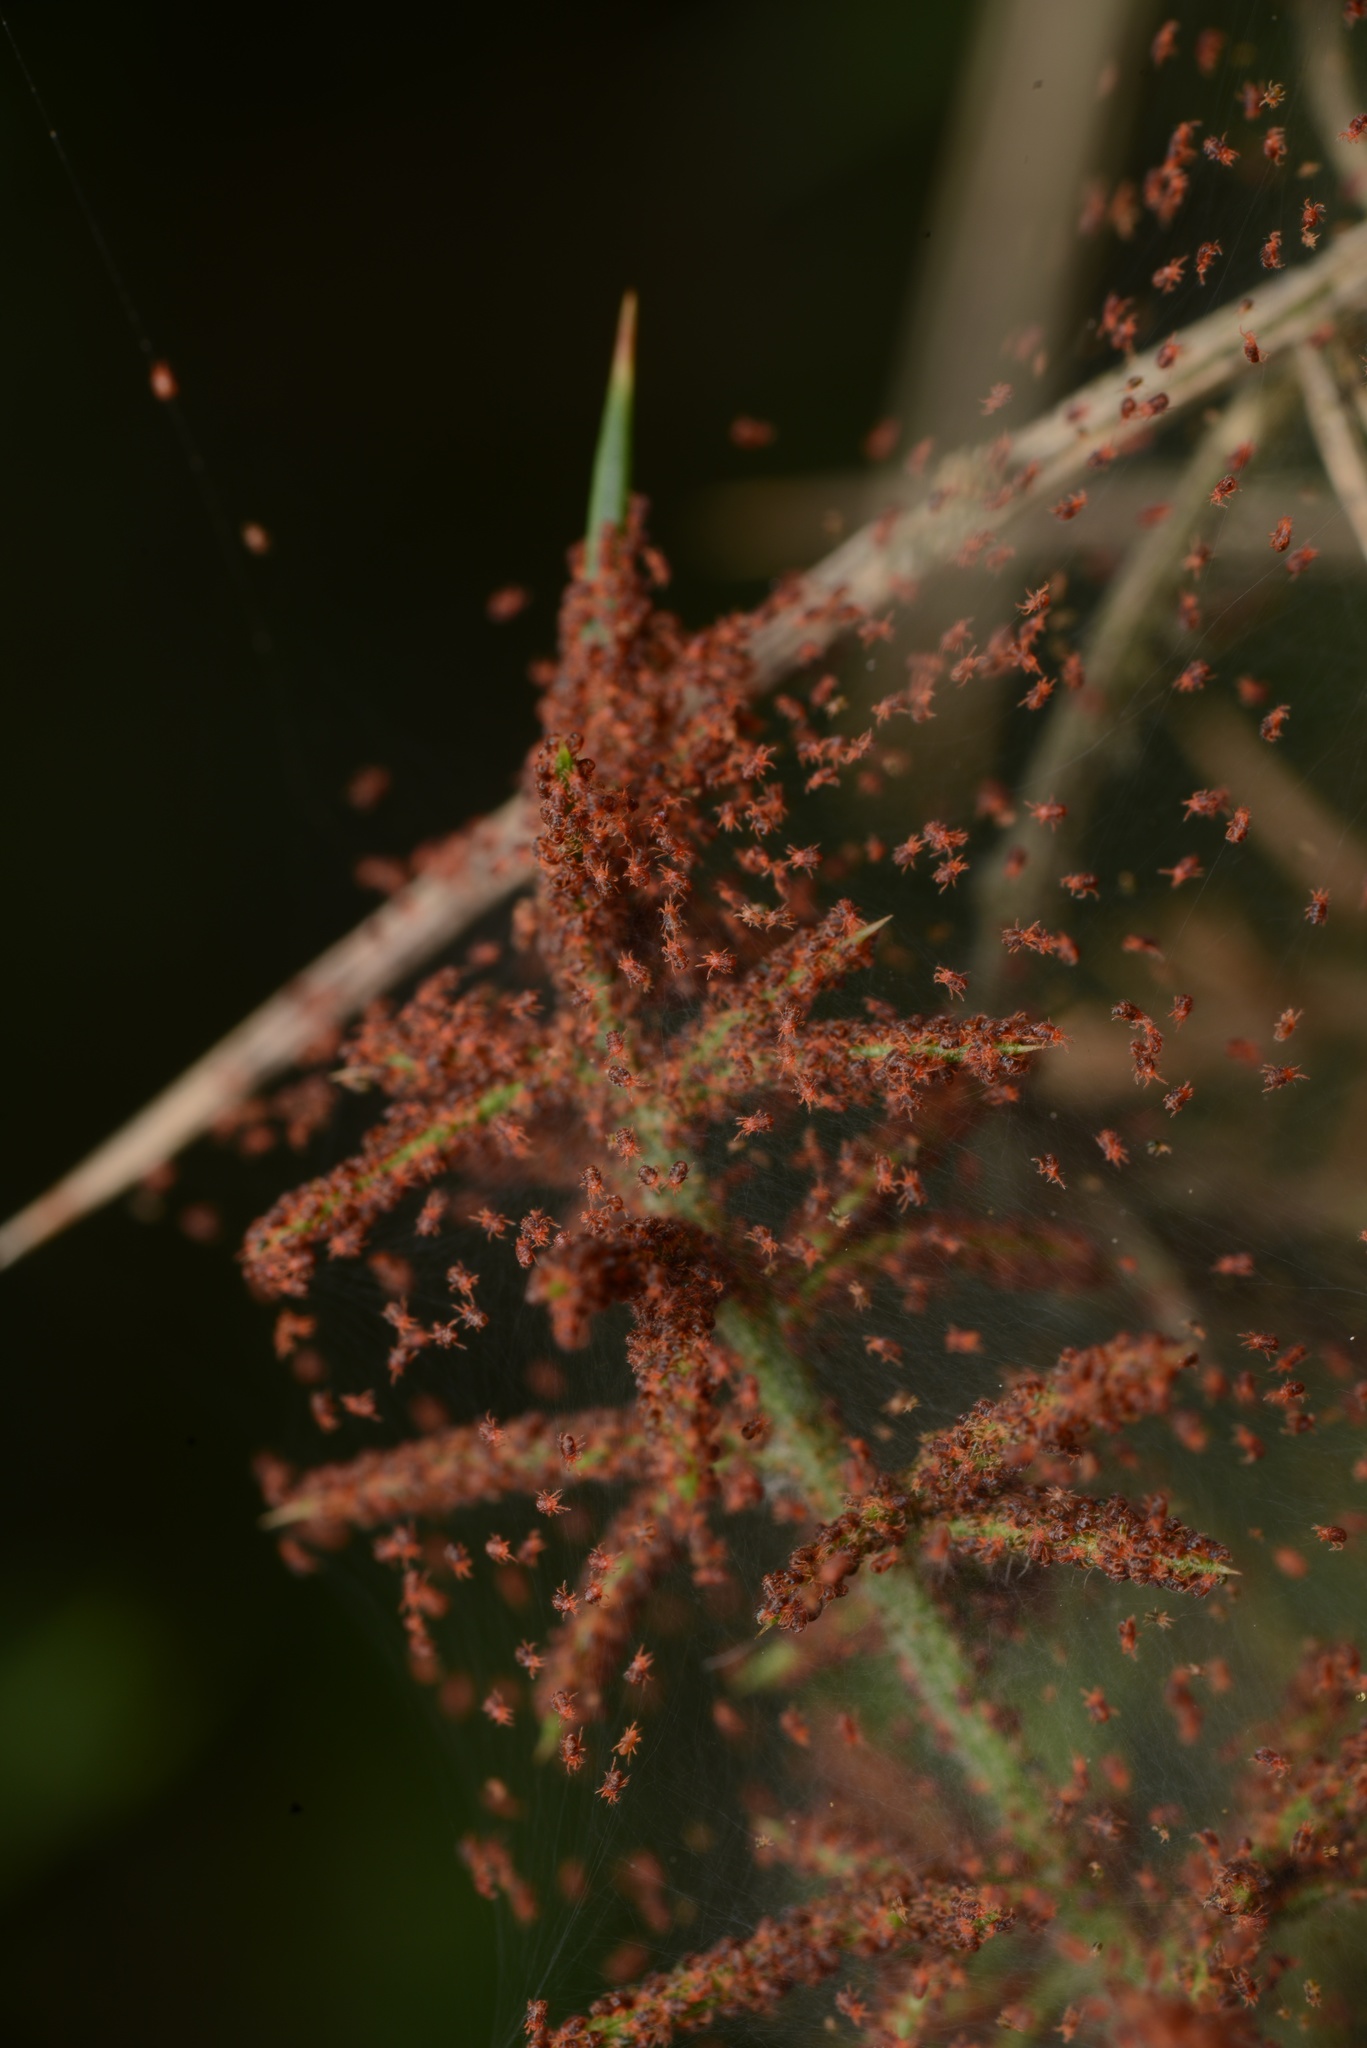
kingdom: Animalia
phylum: Arthropoda
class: Arachnida
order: Trombidiformes
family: Tetranychidae
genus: Tetranychus
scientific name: Tetranychus lintearius
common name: Gorse spider mite
